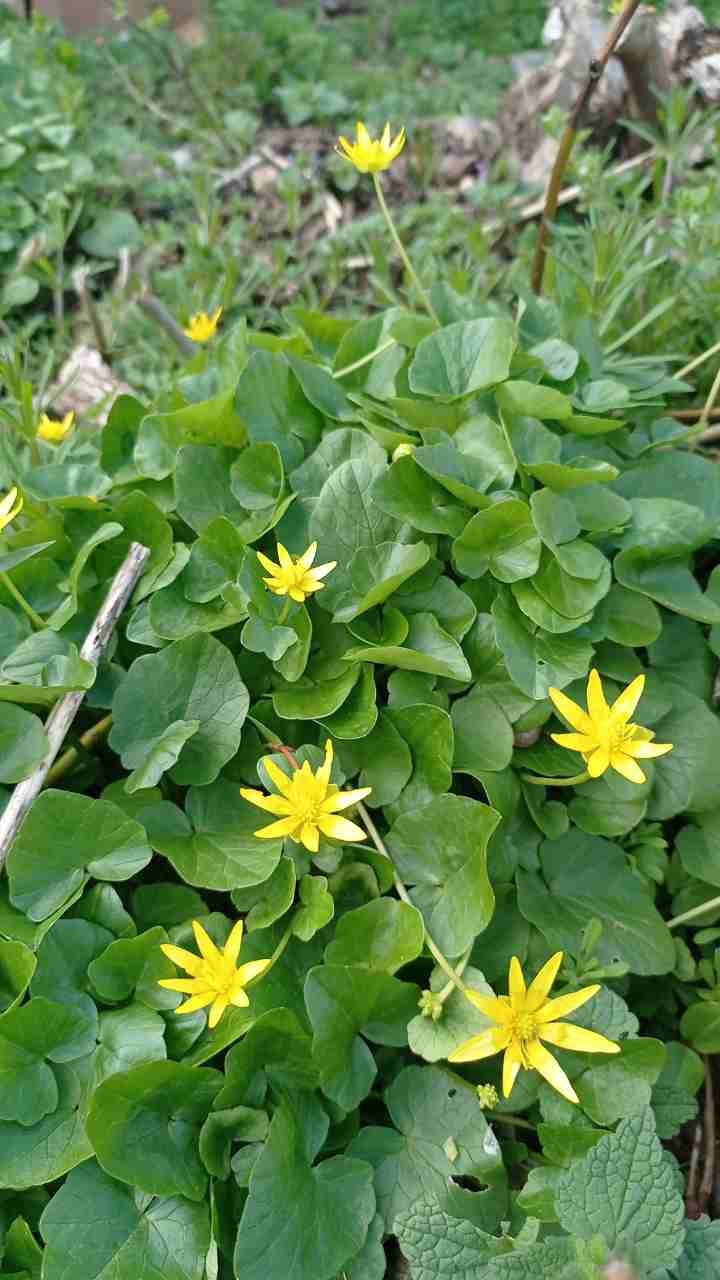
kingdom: Plantae
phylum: Tracheophyta
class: Magnoliopsida
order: Ranunculales
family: Ranunculaceae
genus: Ficaria
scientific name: Ficaria verna
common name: Lesser celandine
